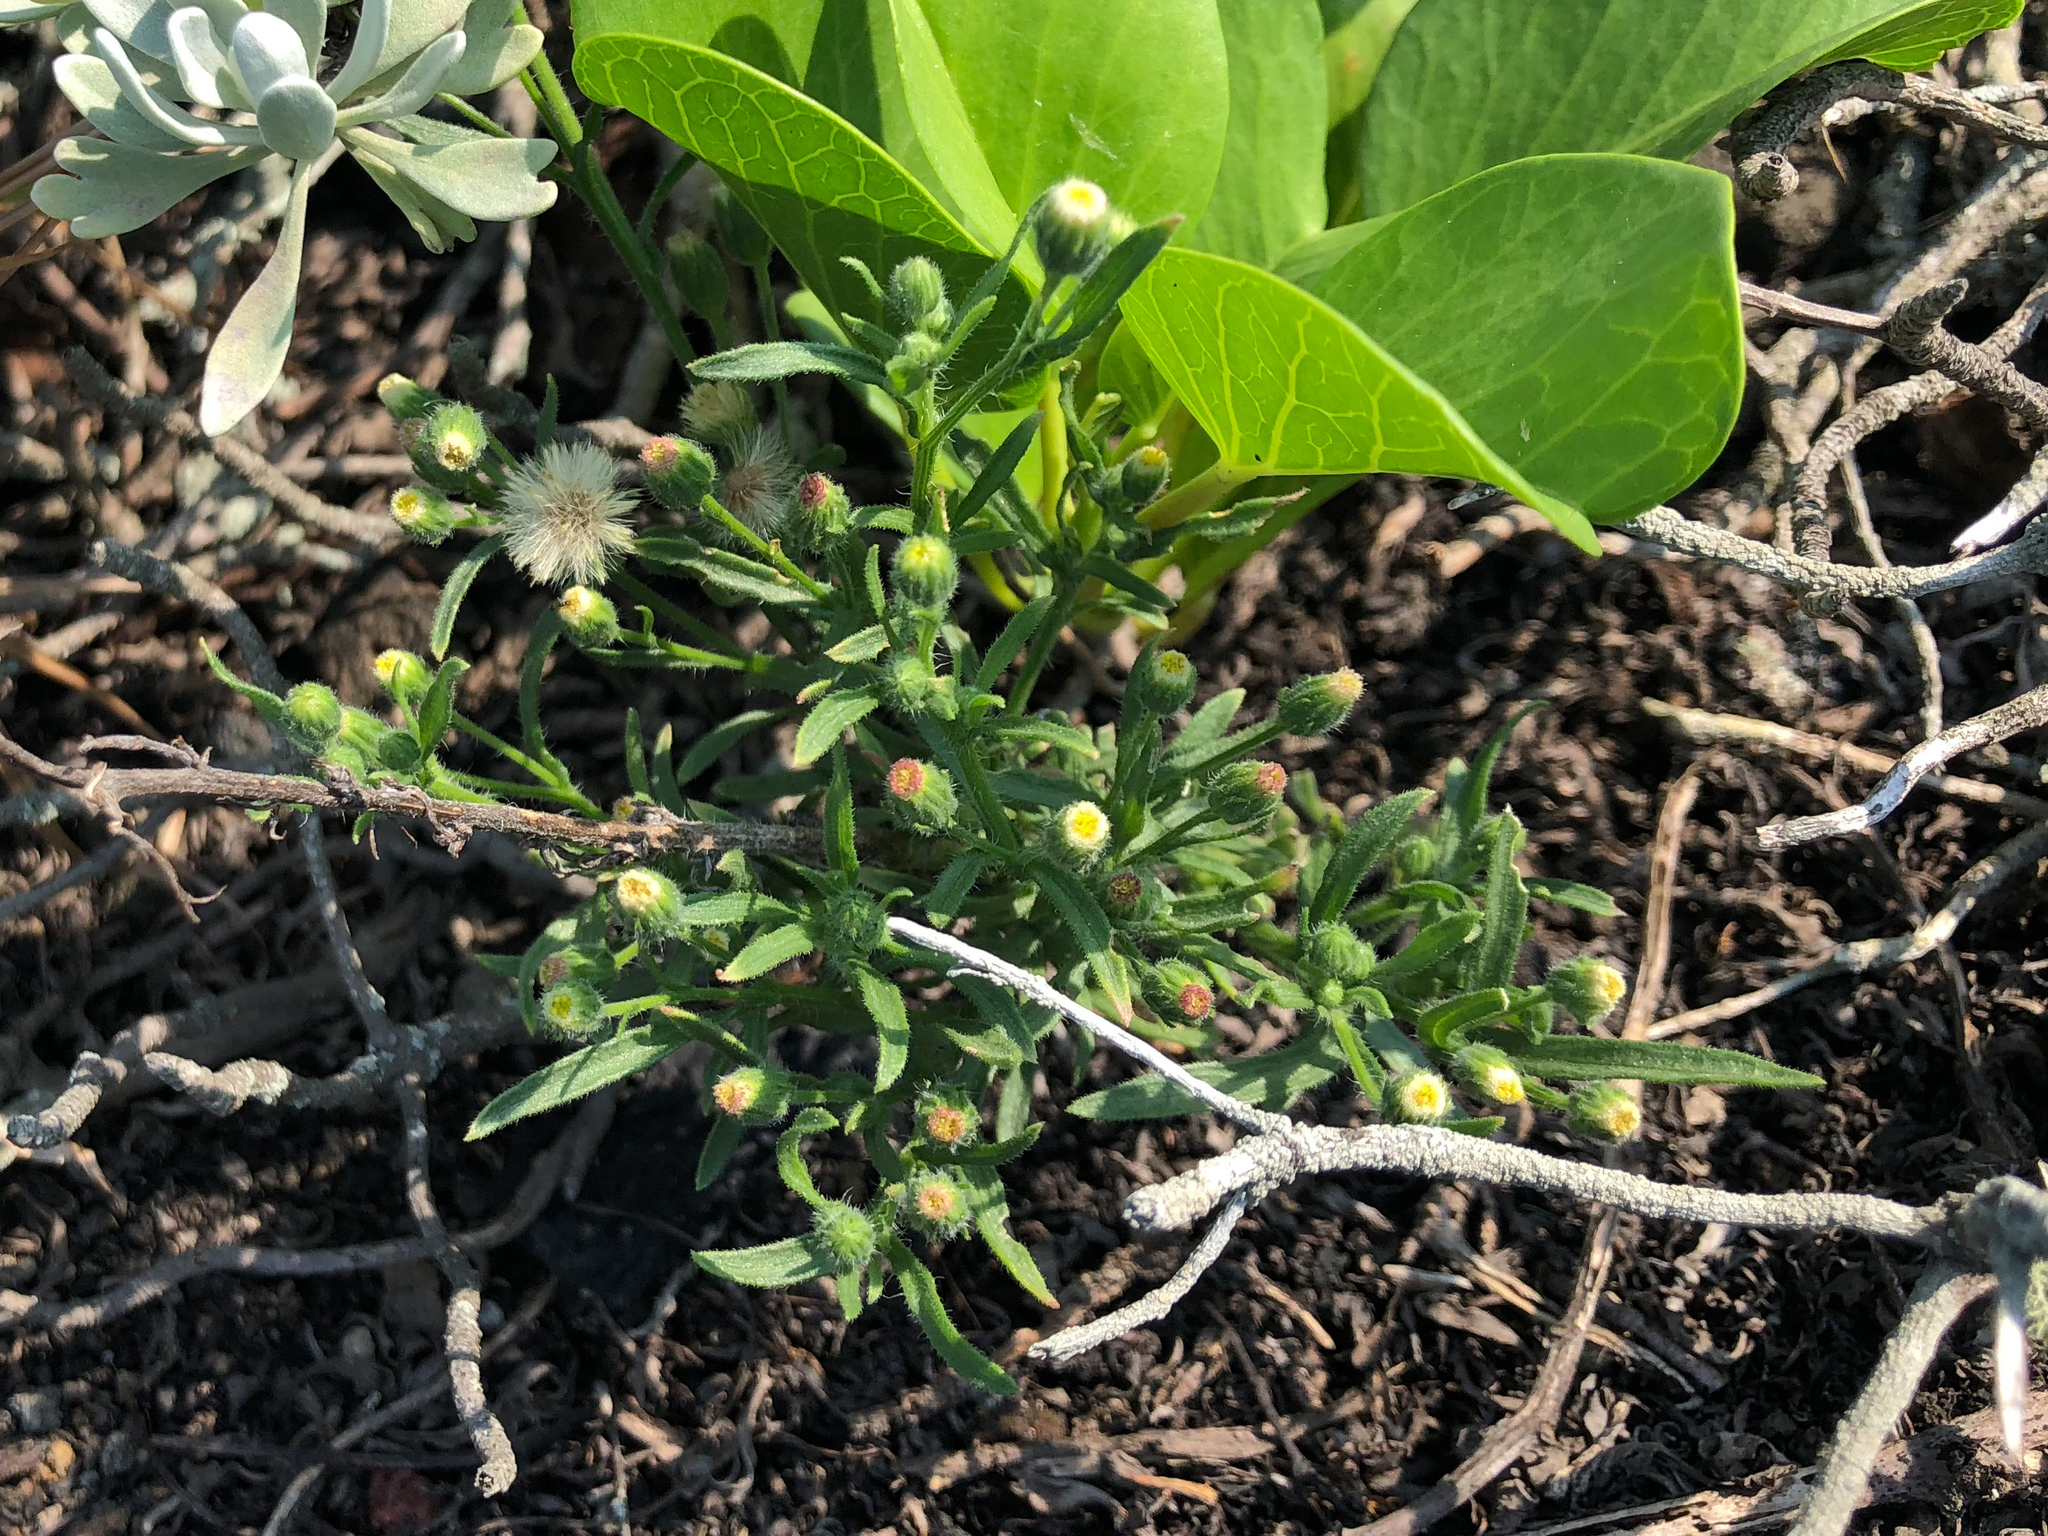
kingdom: Plantae
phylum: Tracheophyta
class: Magnoliopsida
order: Asterales
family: Asteraceae
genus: Erigeron
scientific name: Erigeron bonariensis
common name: Argentine fleabane
